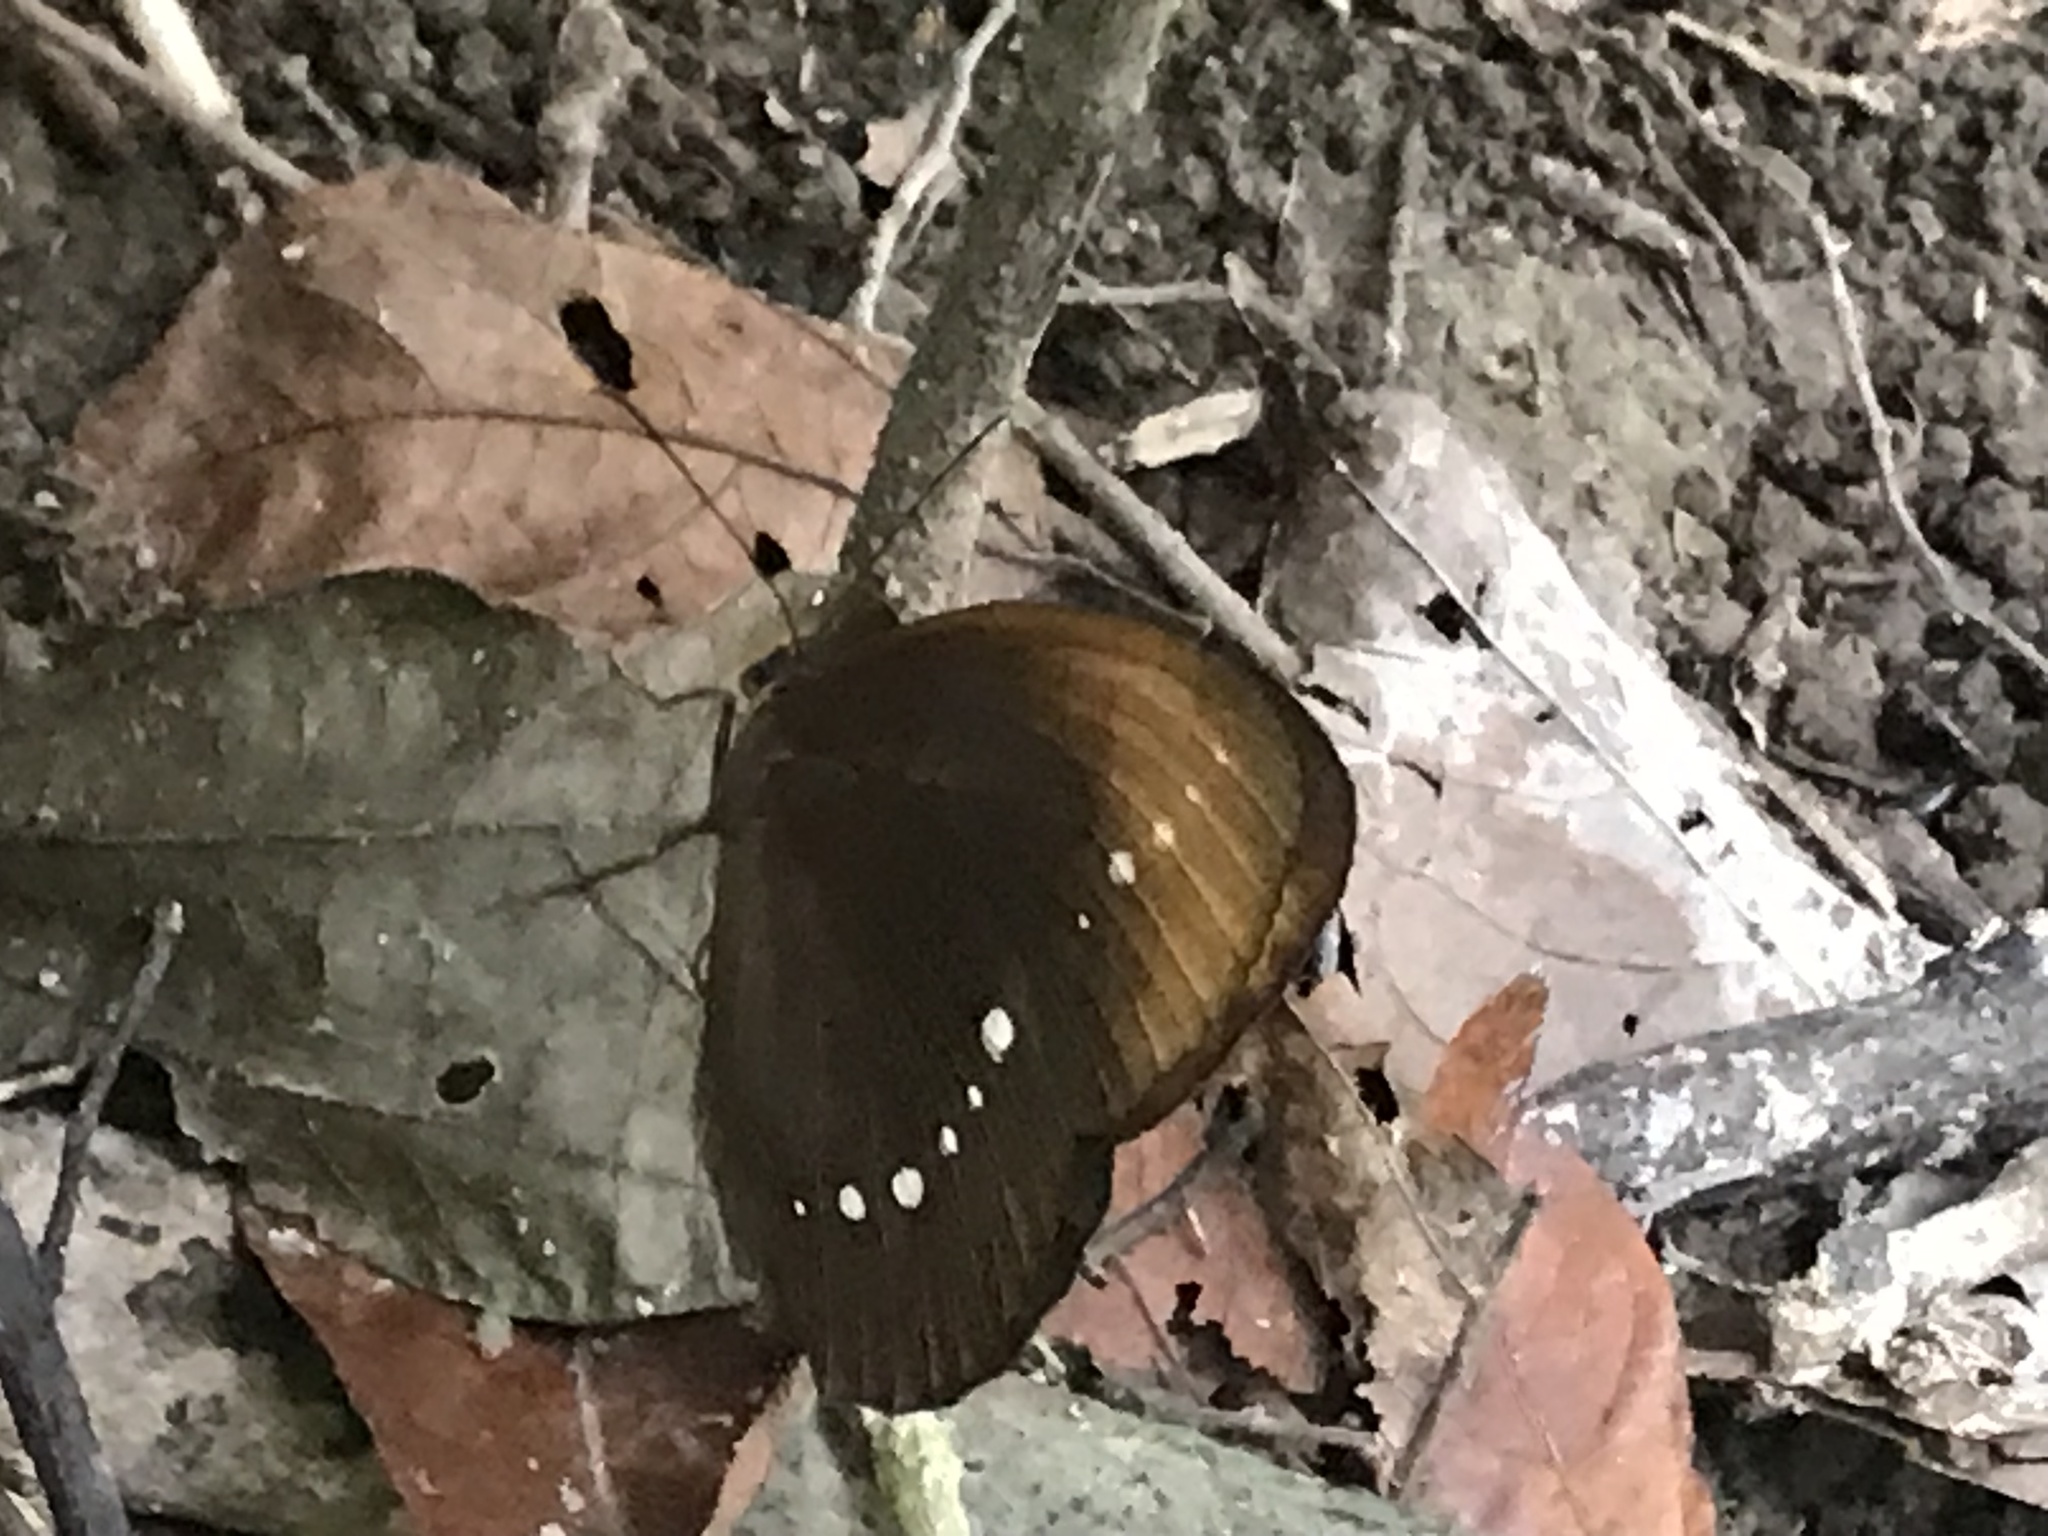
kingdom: Animalia
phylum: Arthropoda
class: Insecta
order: Lepidoptera
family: Nymphalidae
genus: Faunis
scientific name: Faunis eumeus
